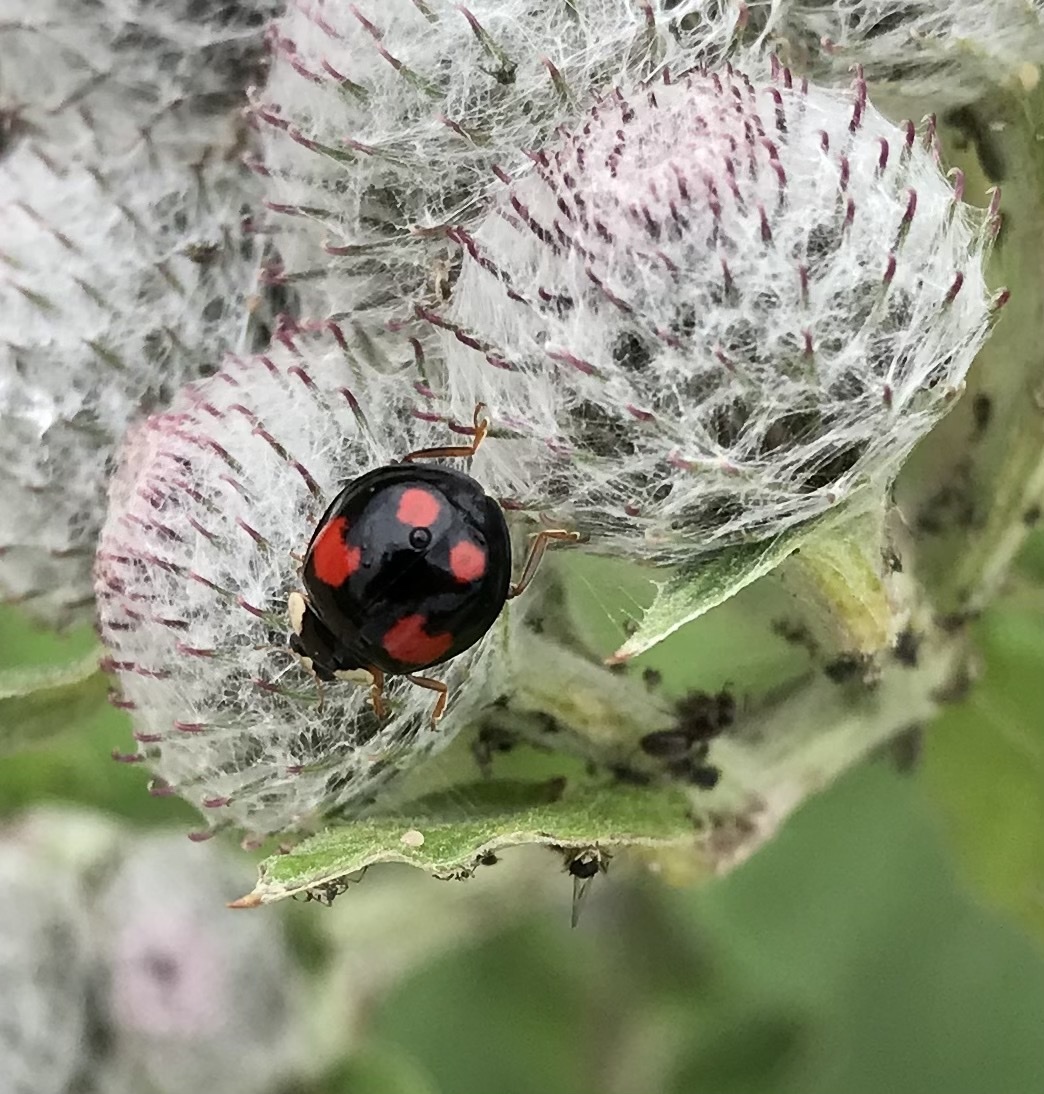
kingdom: Animalia
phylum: Arthropoda
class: Insecta
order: Coleoptera
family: Coccinellidae
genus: Harmonia
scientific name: Harmonia axyridis
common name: Harlequin ladybird
